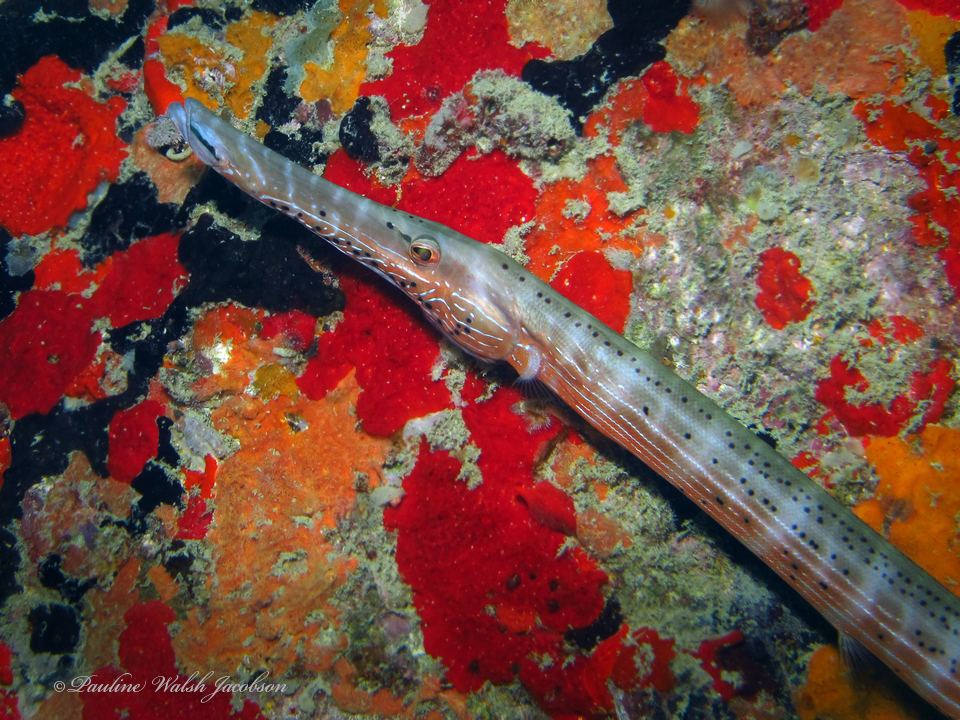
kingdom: Animalia
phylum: Chordata
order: Syngnathiformes
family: Aulostomidae
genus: Aulostomus
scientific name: Aulostomus maculatus
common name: West atlantic trumpetfish
